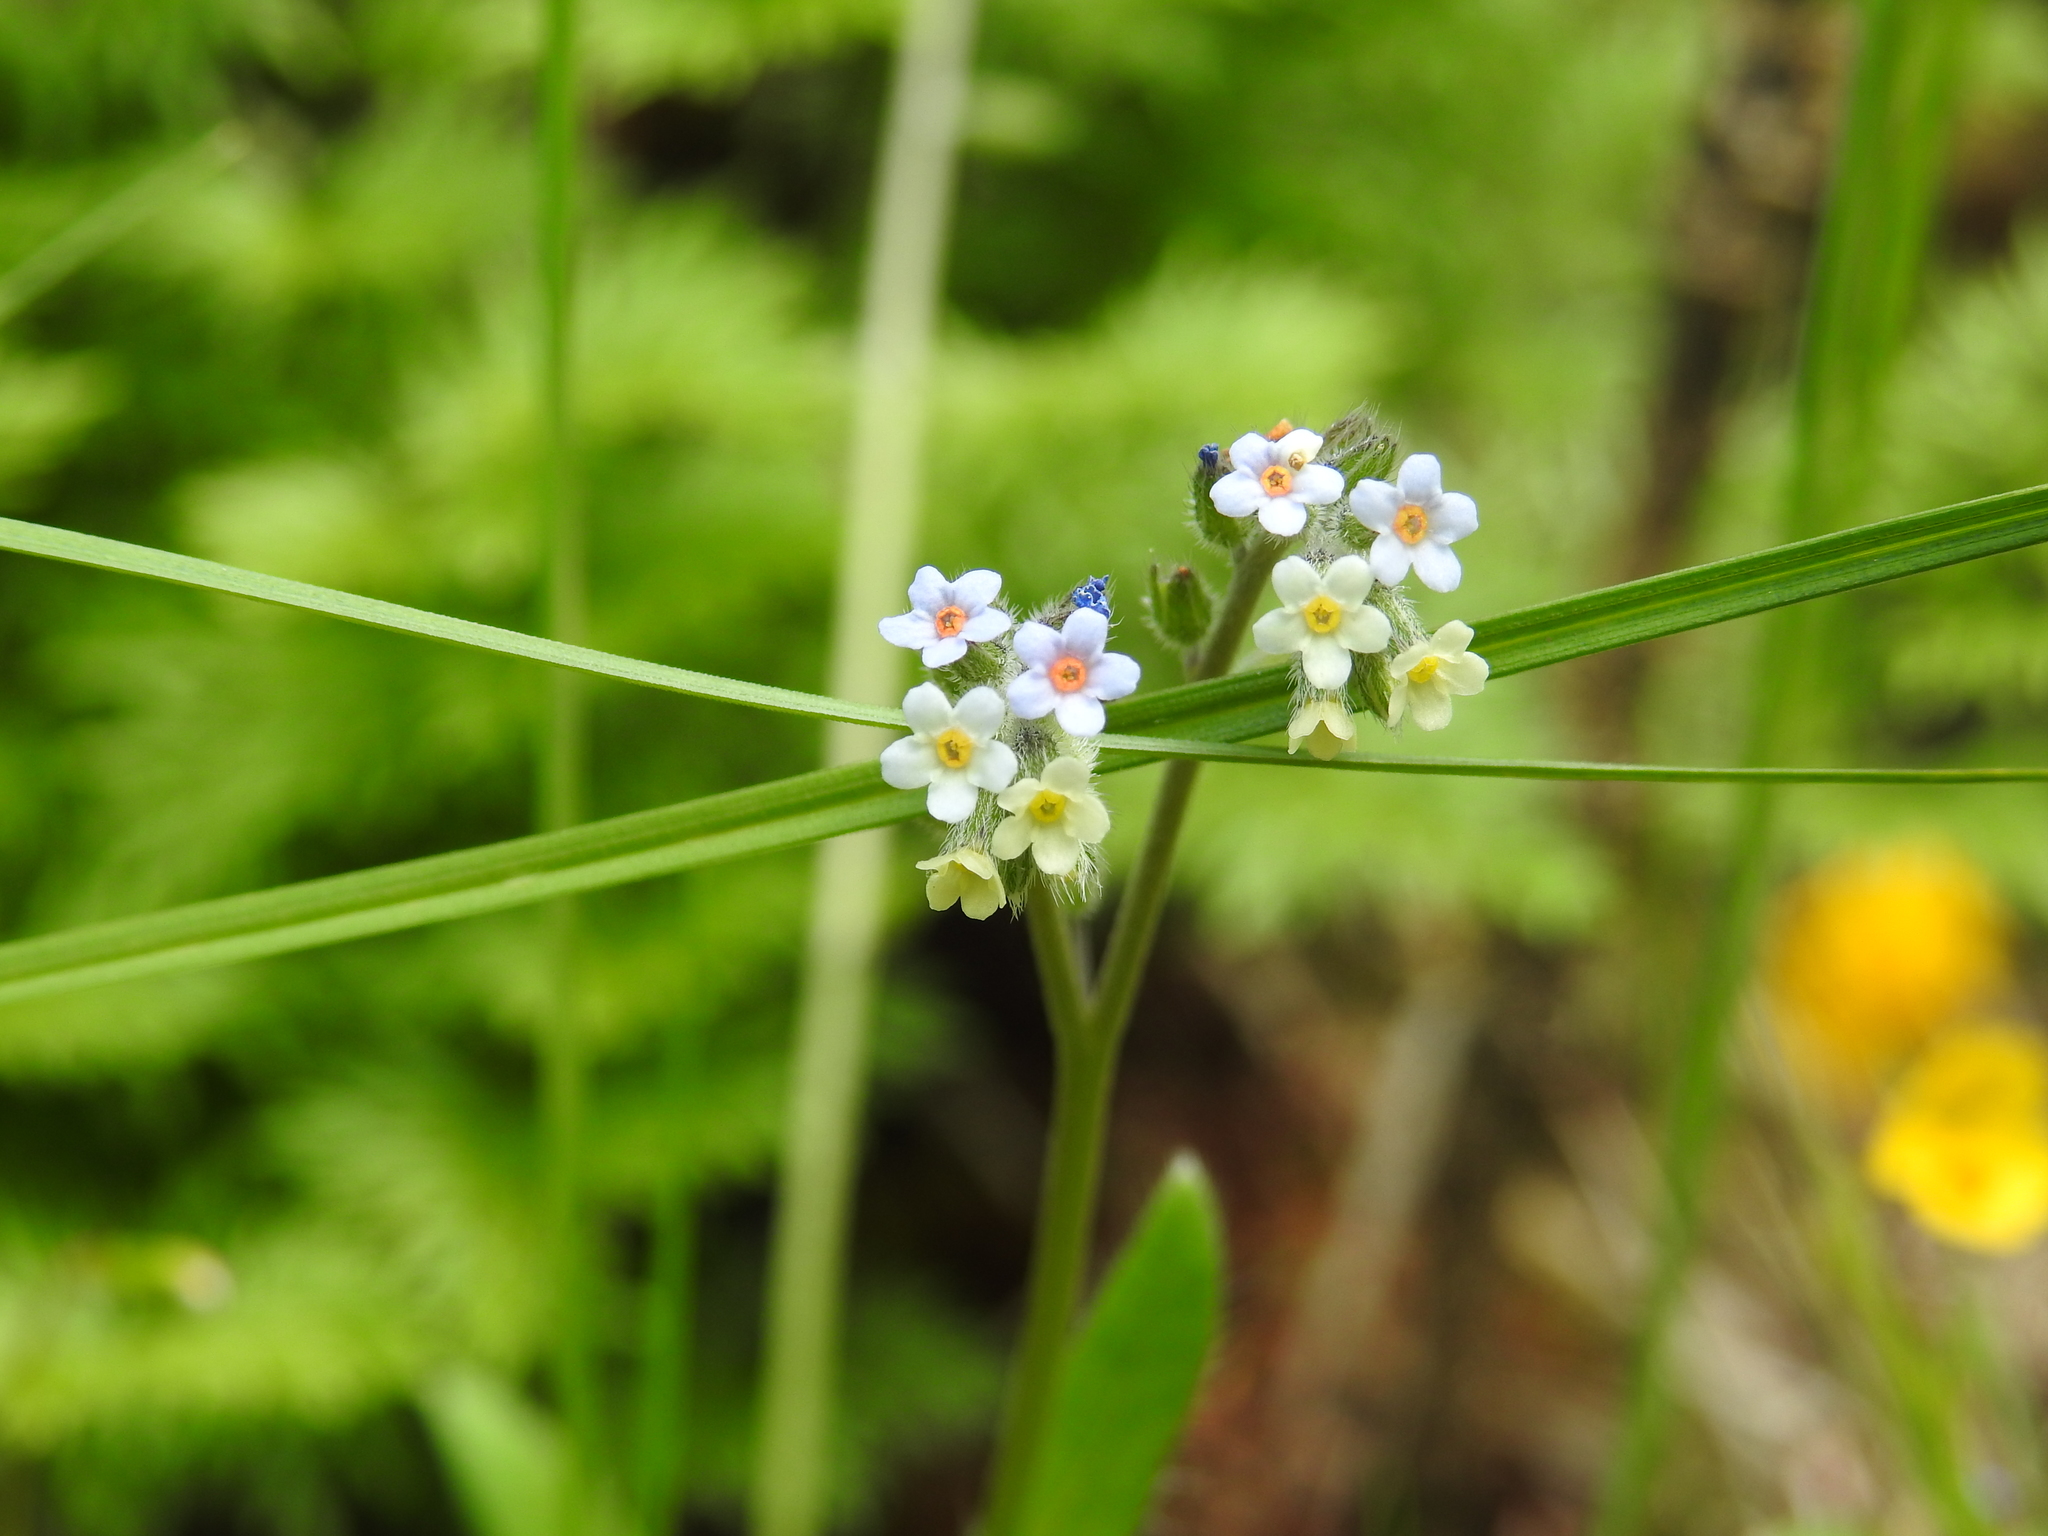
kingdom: Plantae
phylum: Tracheophyta
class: Magnoliopsida
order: Boraginales
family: Boraginaceae
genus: Myosotis
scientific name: Myosotis discolor
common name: Changing forget-me-not
